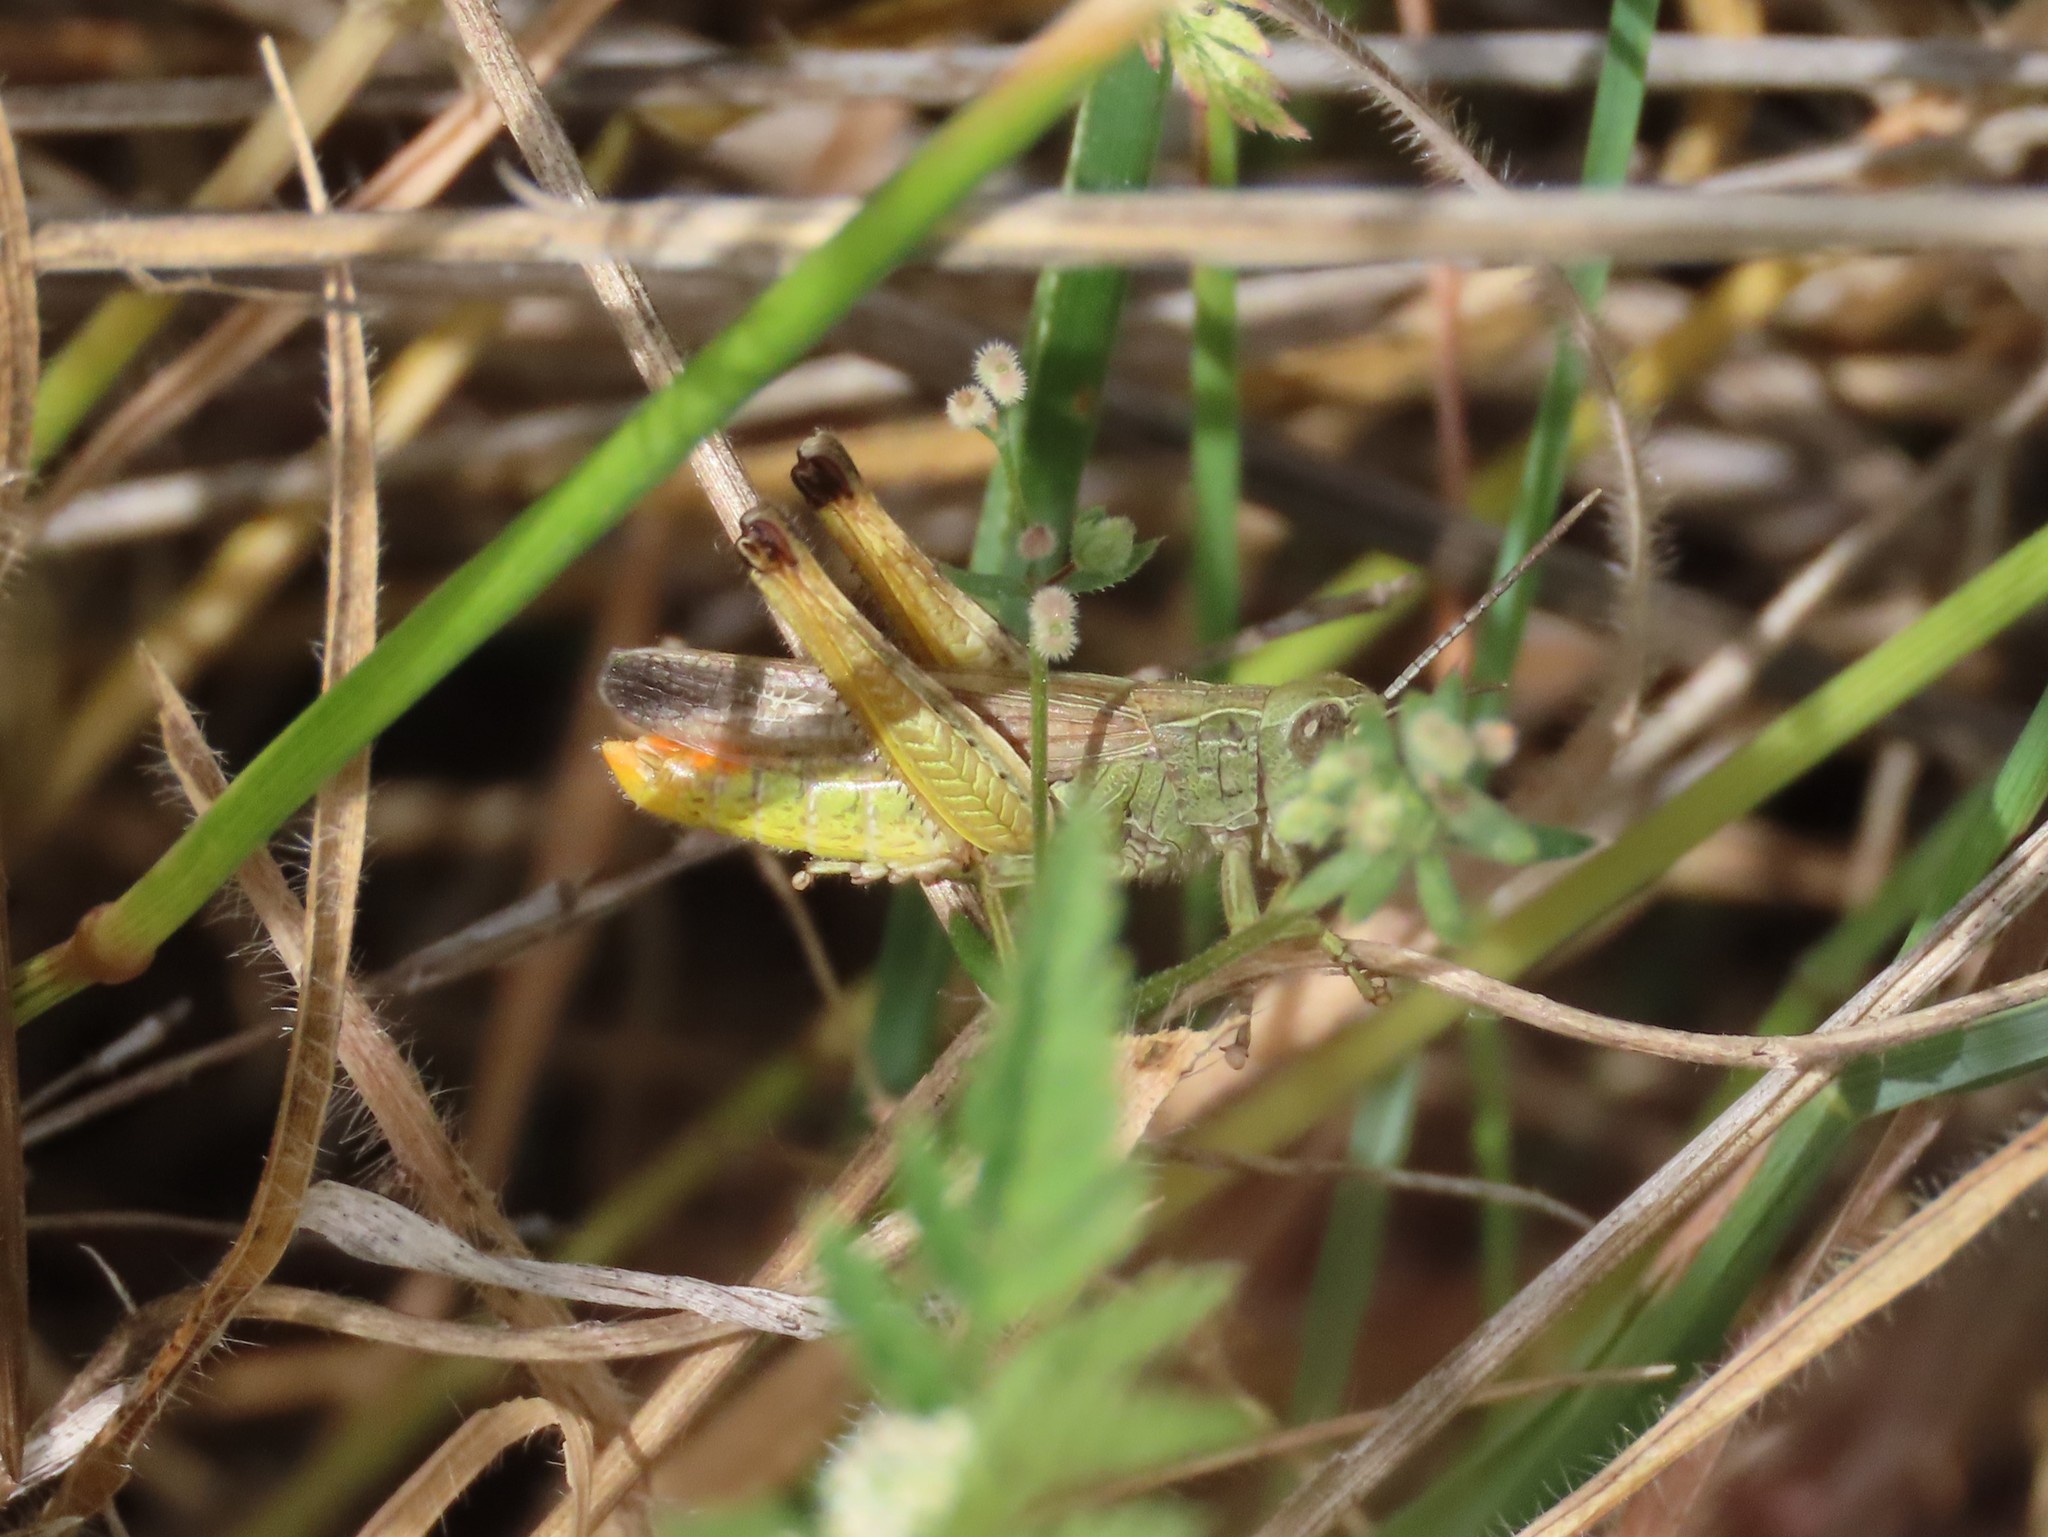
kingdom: Animalia
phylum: Arthropoda
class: Insecta
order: Orthoptera
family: Acrididae
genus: Chorthippus
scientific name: Chorthippus apicalis
